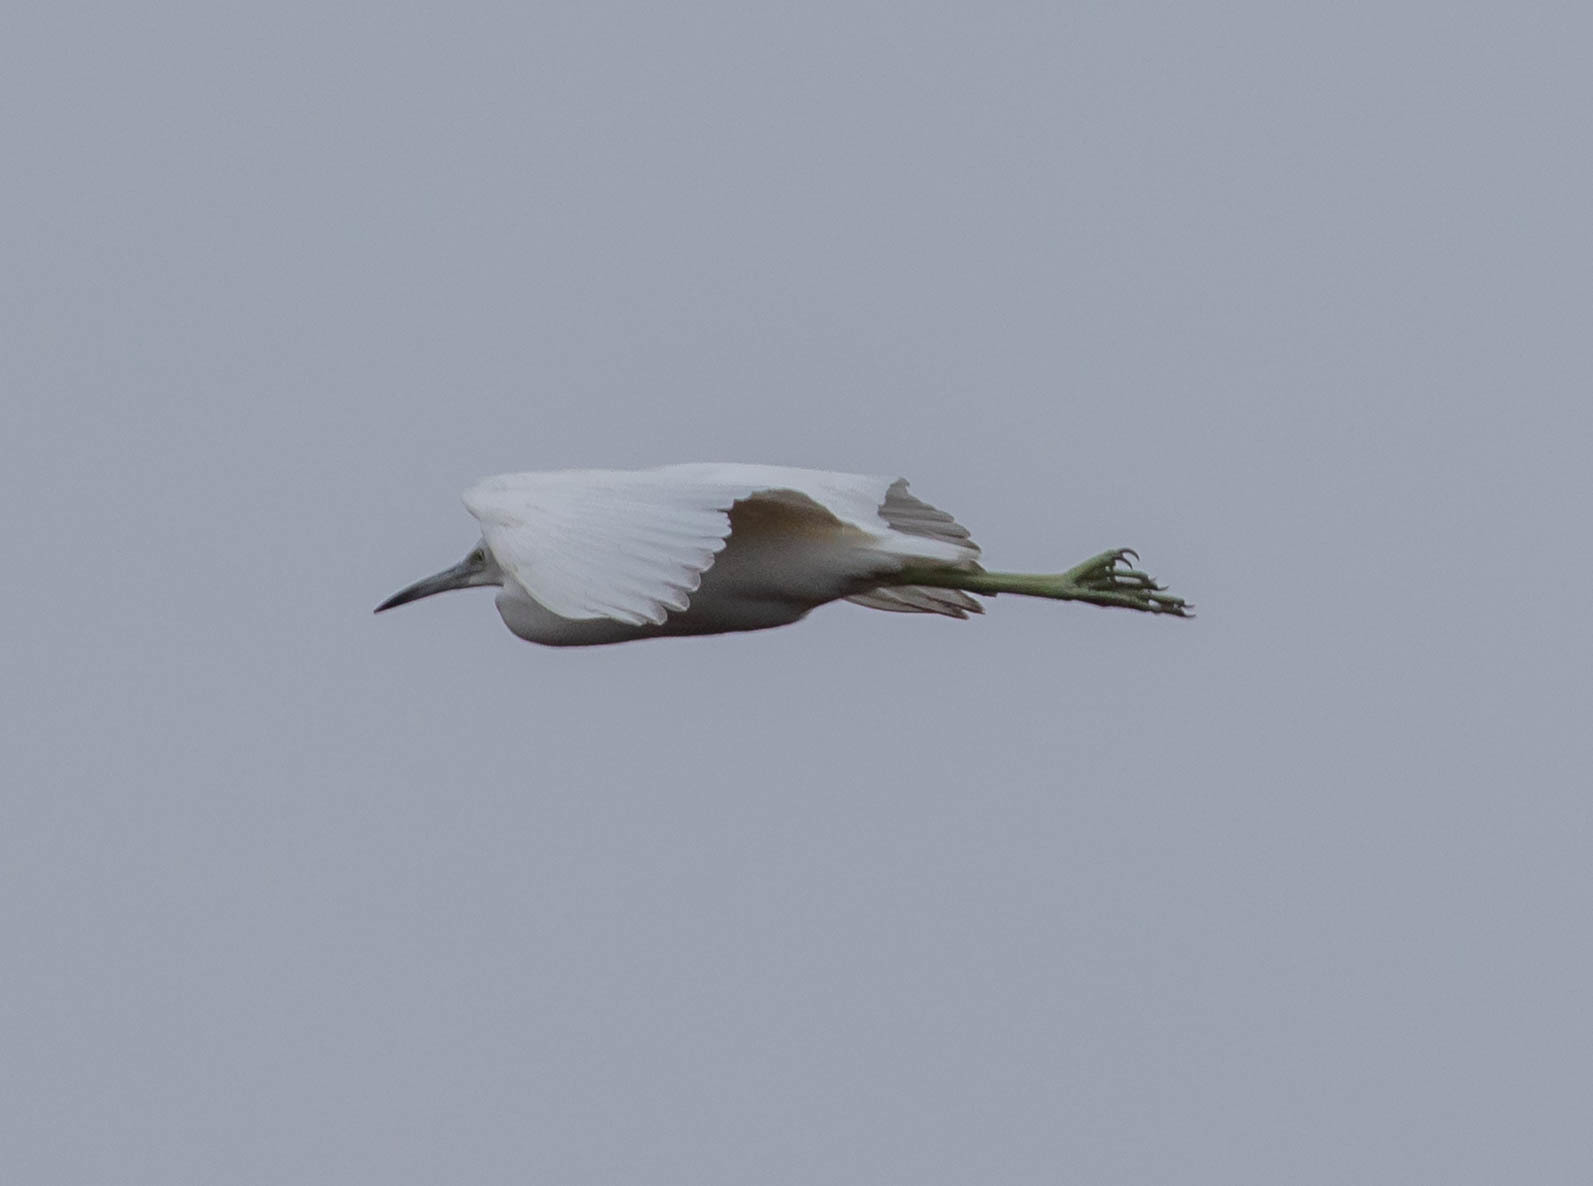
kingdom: Animalia
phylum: Chordata
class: Aves
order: Pelecaniformes
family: Ardeidae
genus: Egretta
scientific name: Egretta caerulea
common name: Little blue heron
